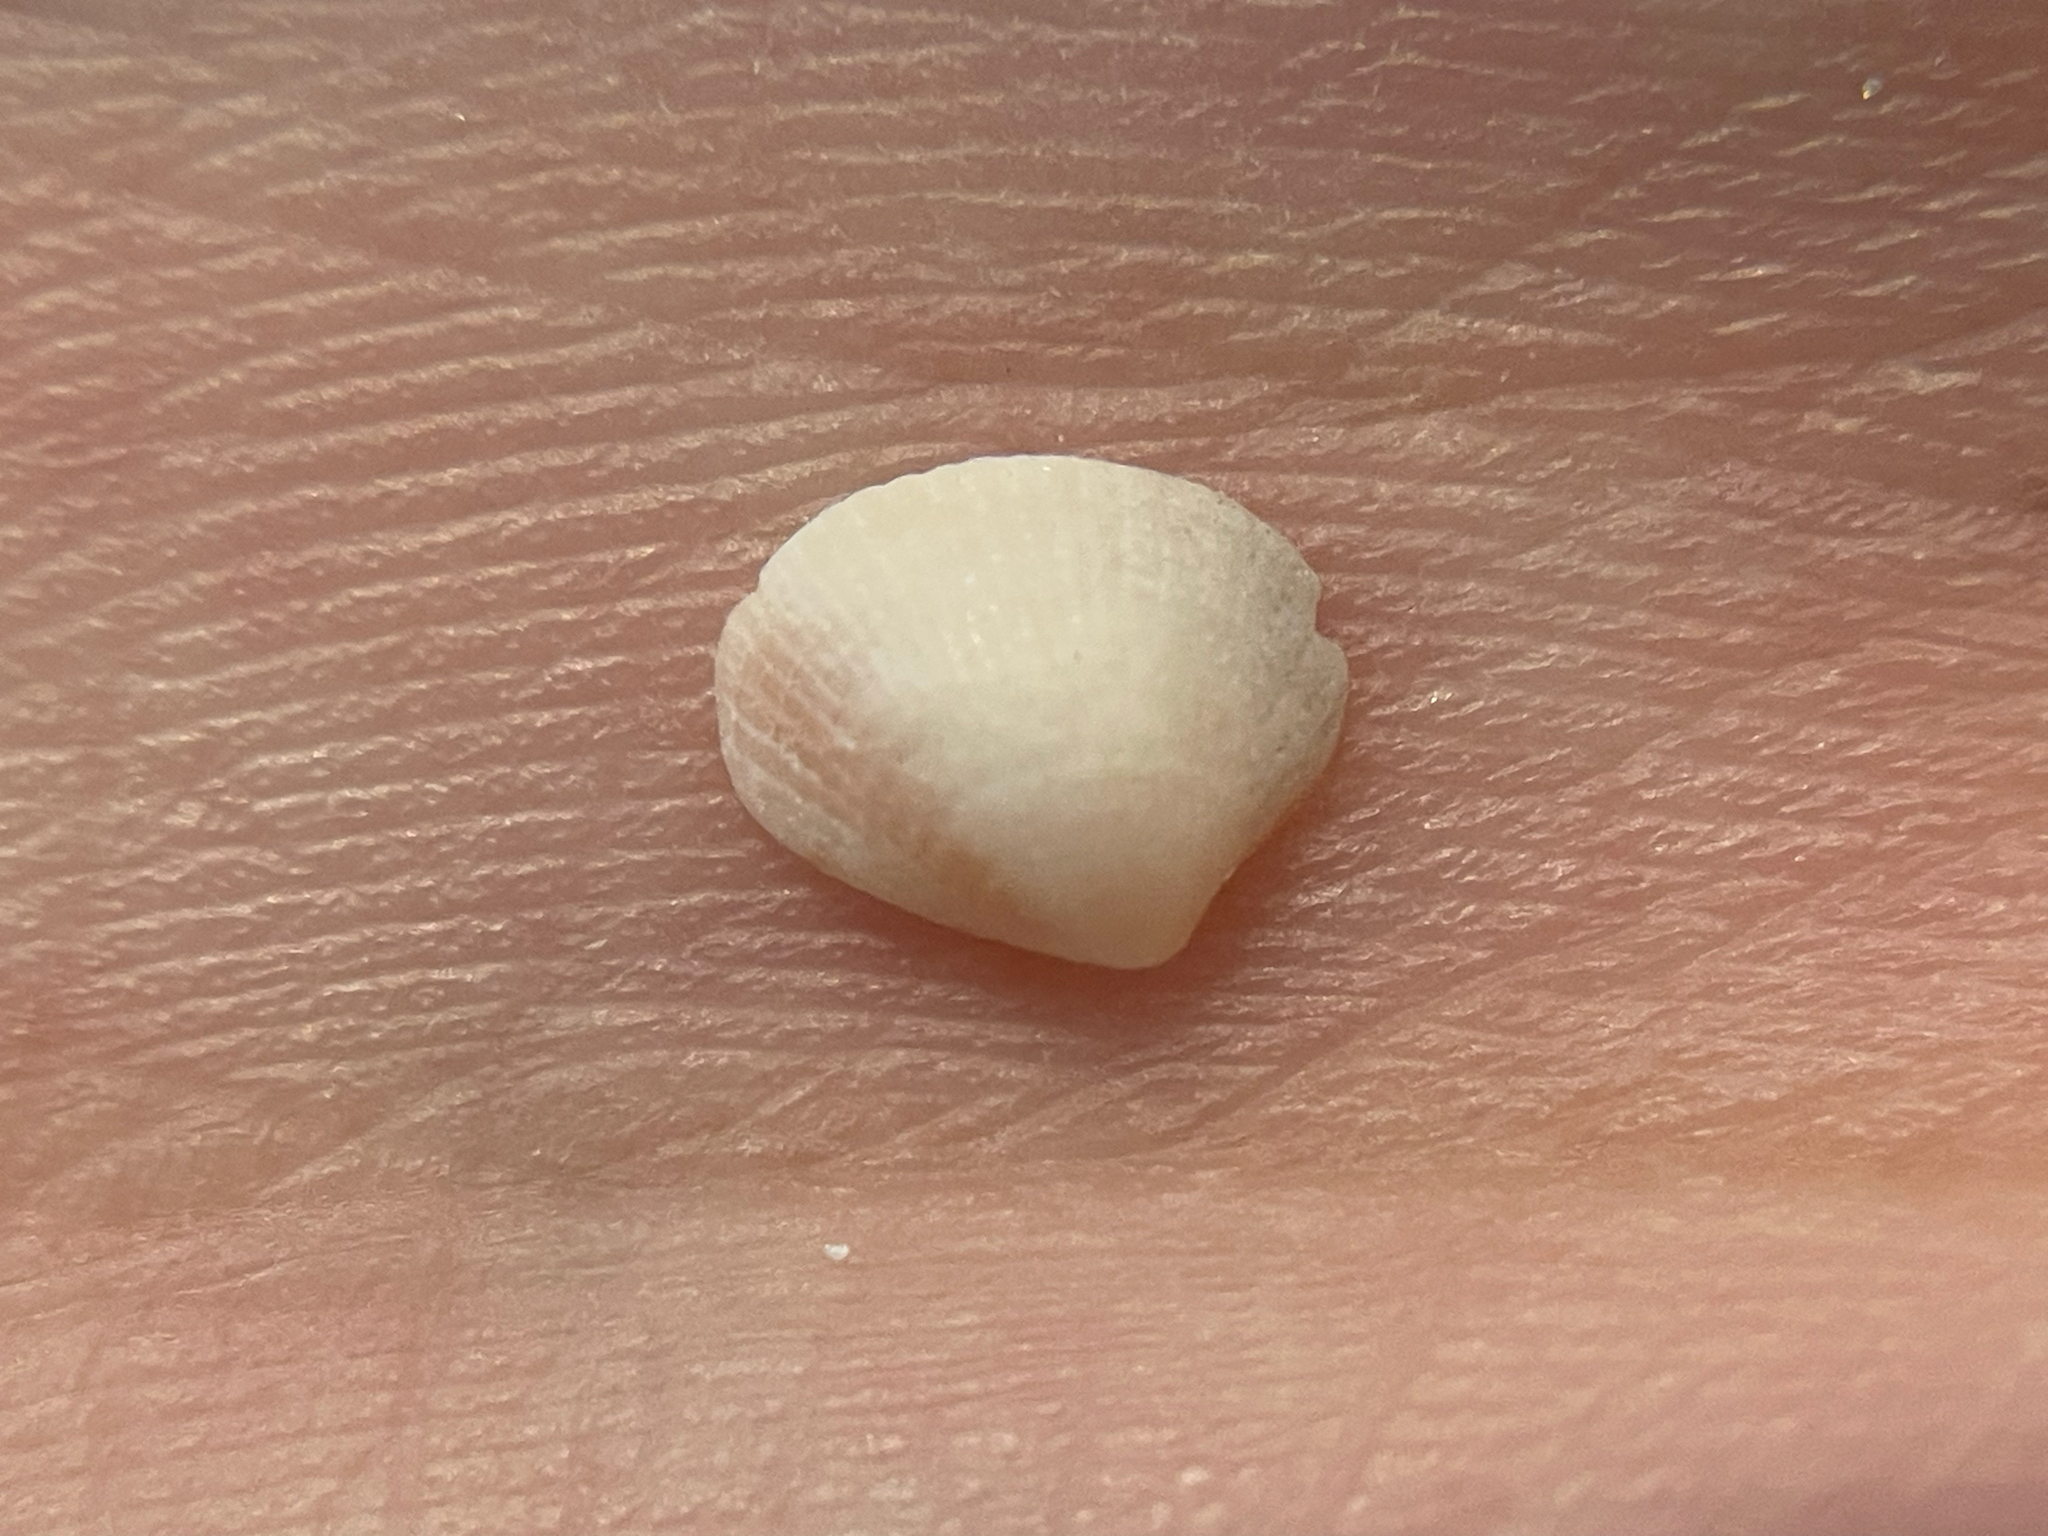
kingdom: Animalia
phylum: Mollusca
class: Bivalvia
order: Venerida
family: Veneridae
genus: Chioneryx
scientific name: Chioneryx grus
